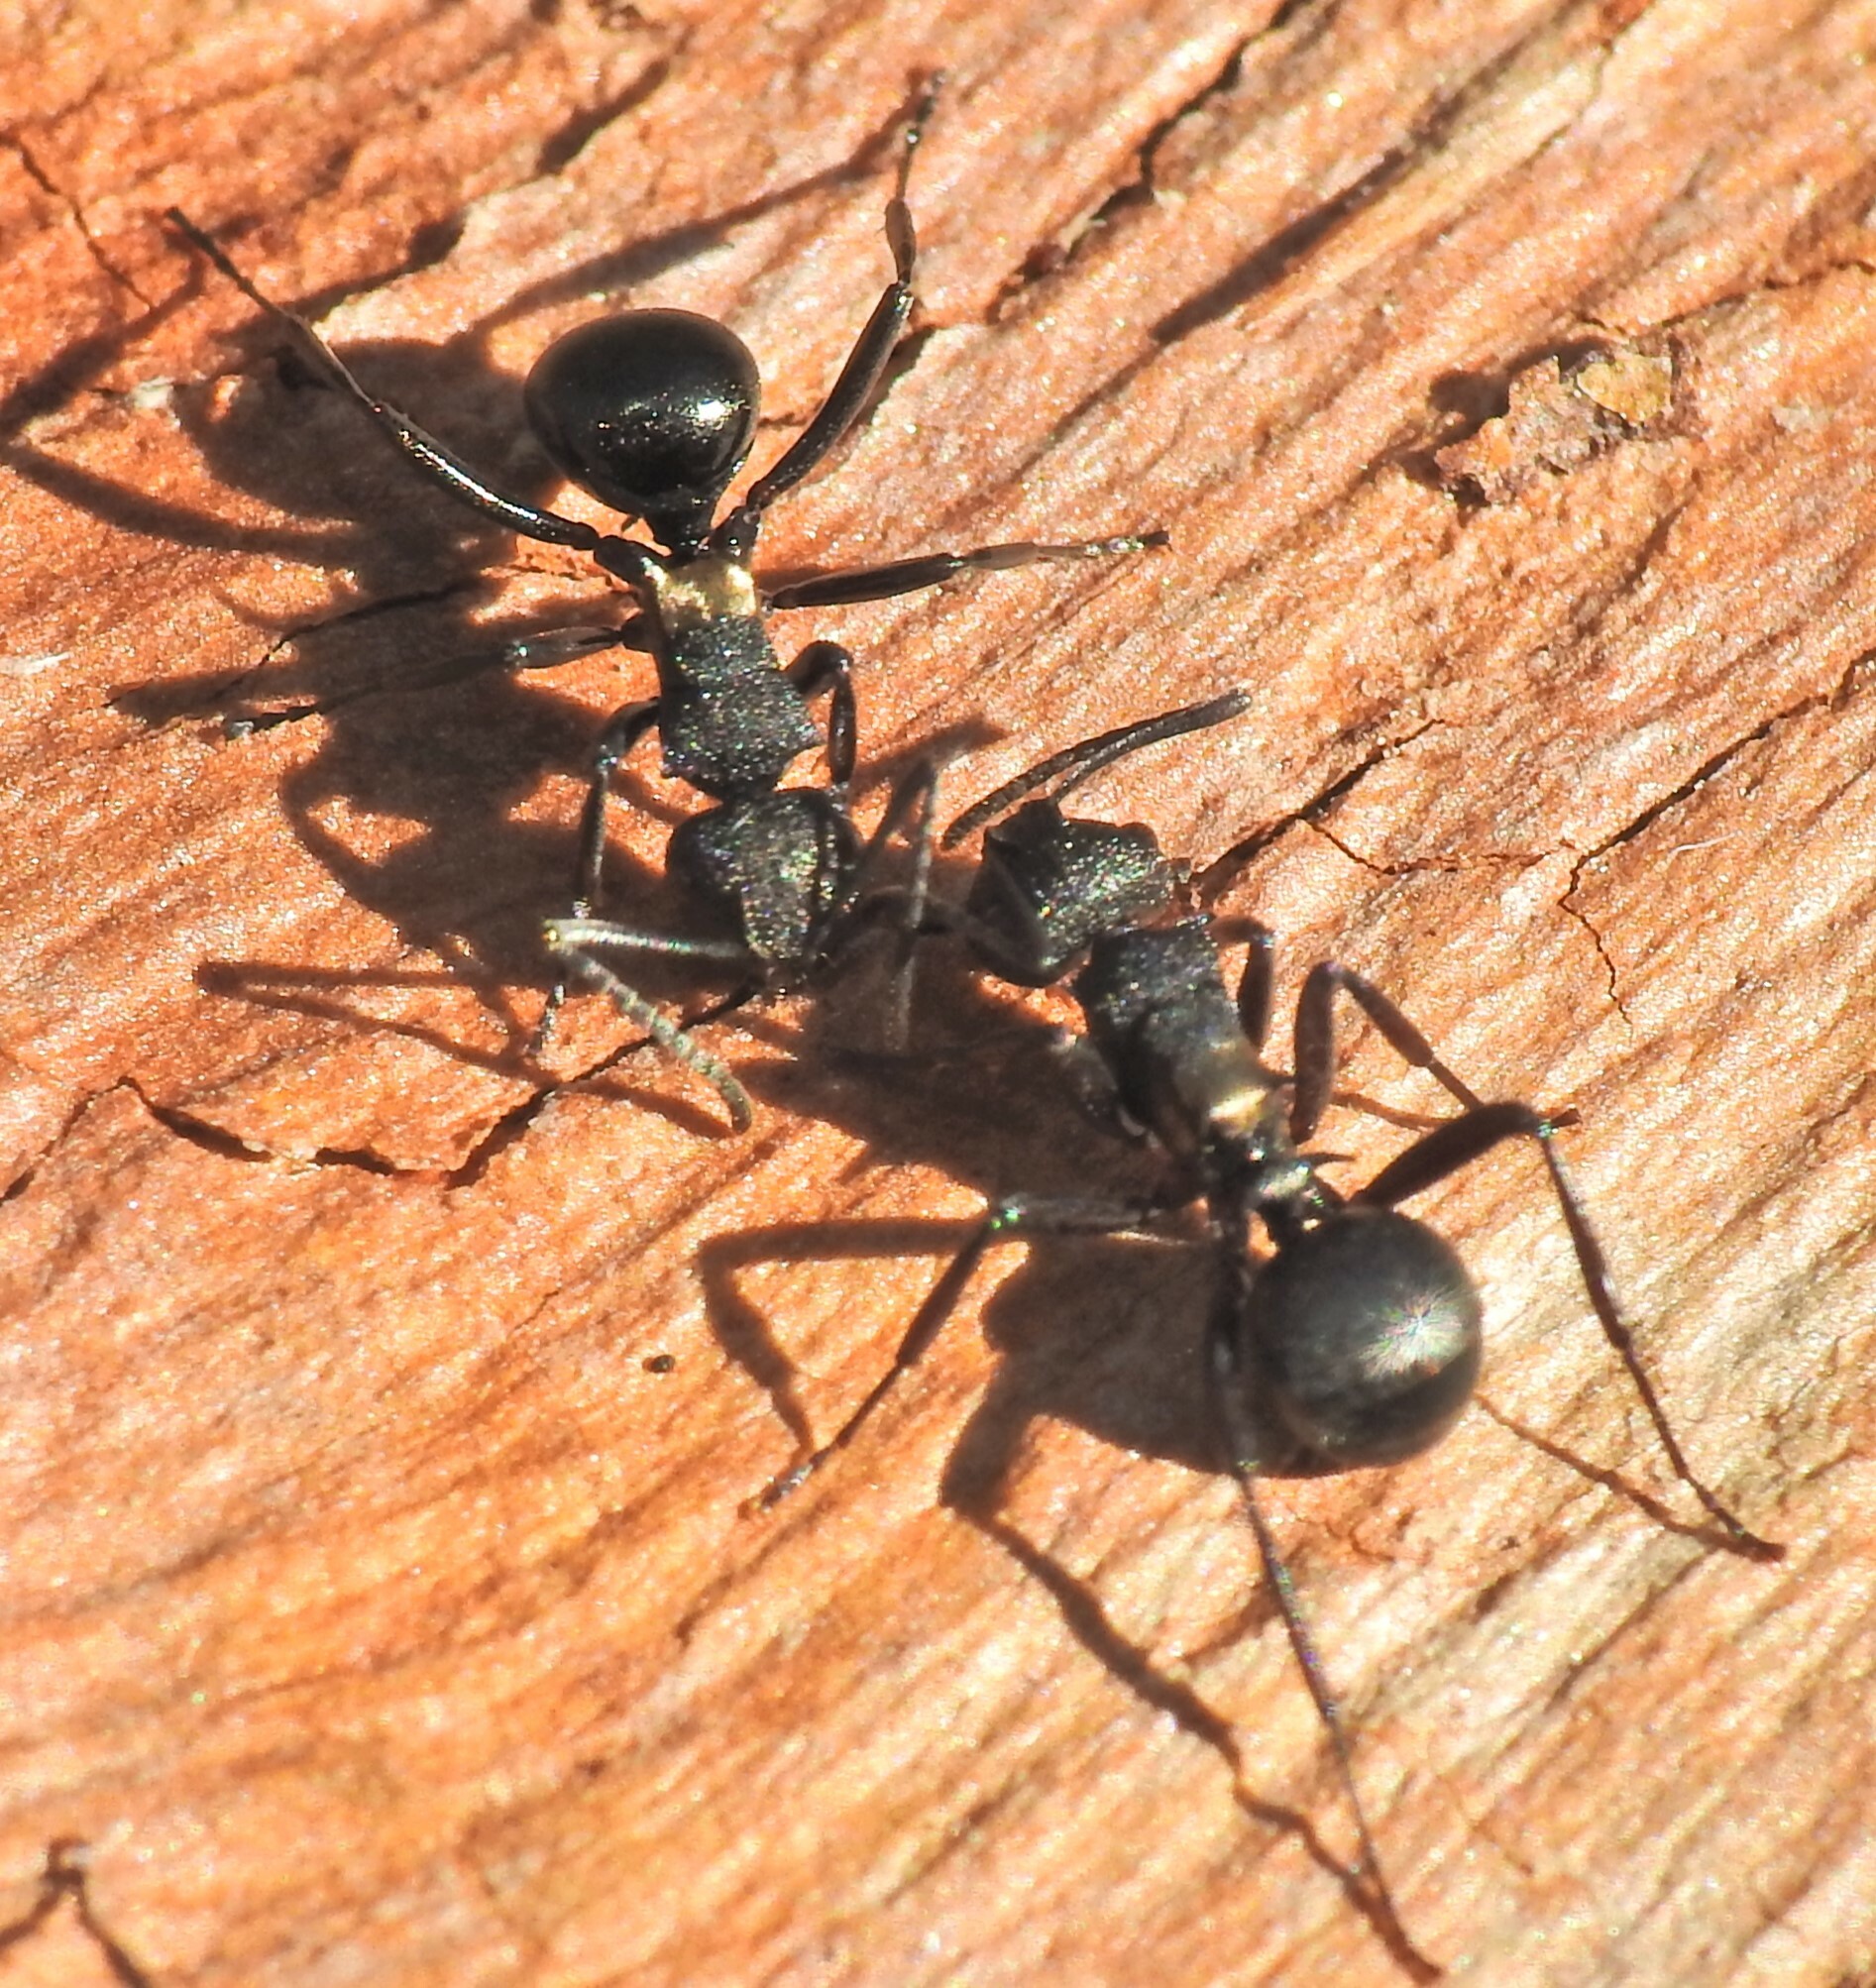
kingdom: Animalia
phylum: Arthropoda
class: Insecta
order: Hymenoptera
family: Formicidae
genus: Polyrhachis
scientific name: Polyrhachis machaon
